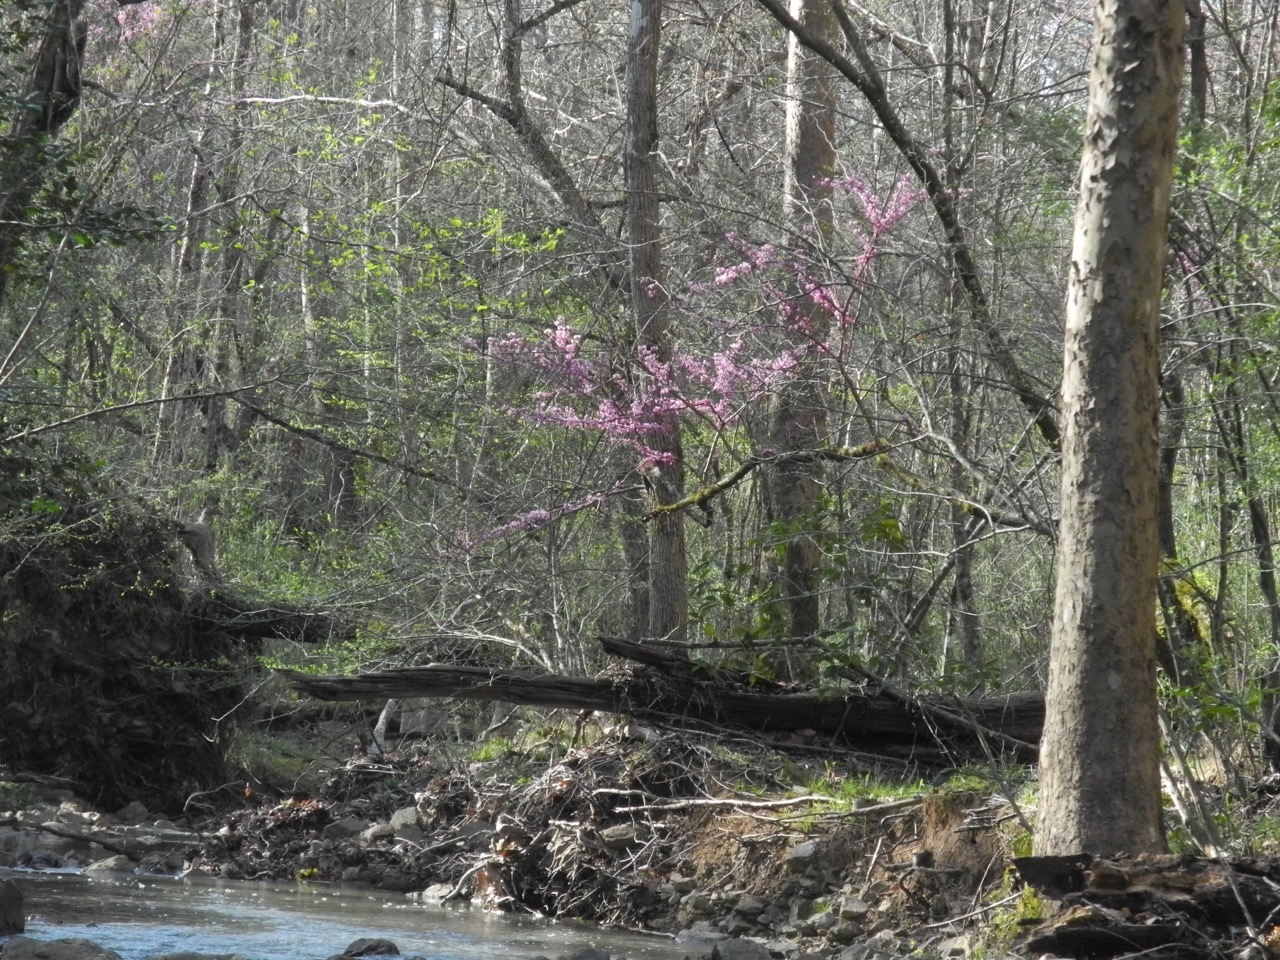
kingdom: Plantae
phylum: Tracheophyta
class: Magnoliopsida
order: Fabales
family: Fabaceae
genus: Cercis
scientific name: Cercis canadensis
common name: Eastern redbud
